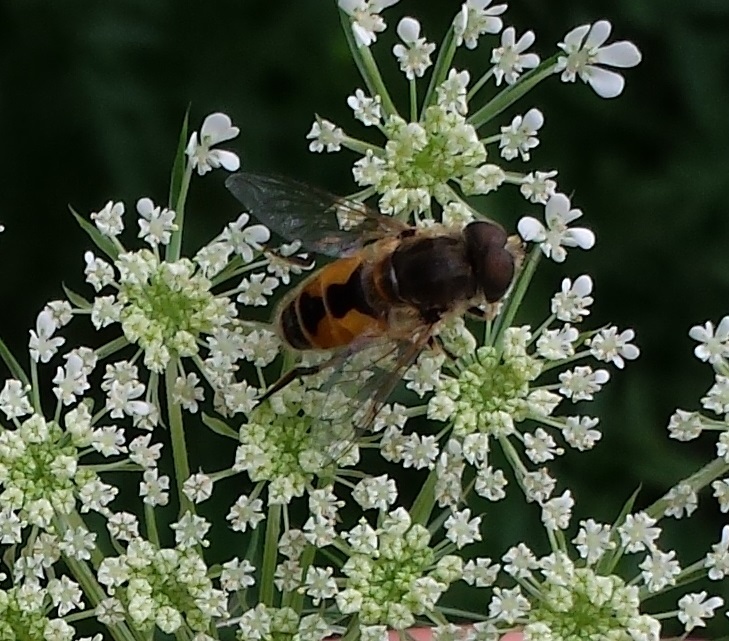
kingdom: Animalia
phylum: Arthropoda
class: Insecta
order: Diptera
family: Syrphidae
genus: Eristalis
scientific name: Eristalis arbustorum
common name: Hover fly
